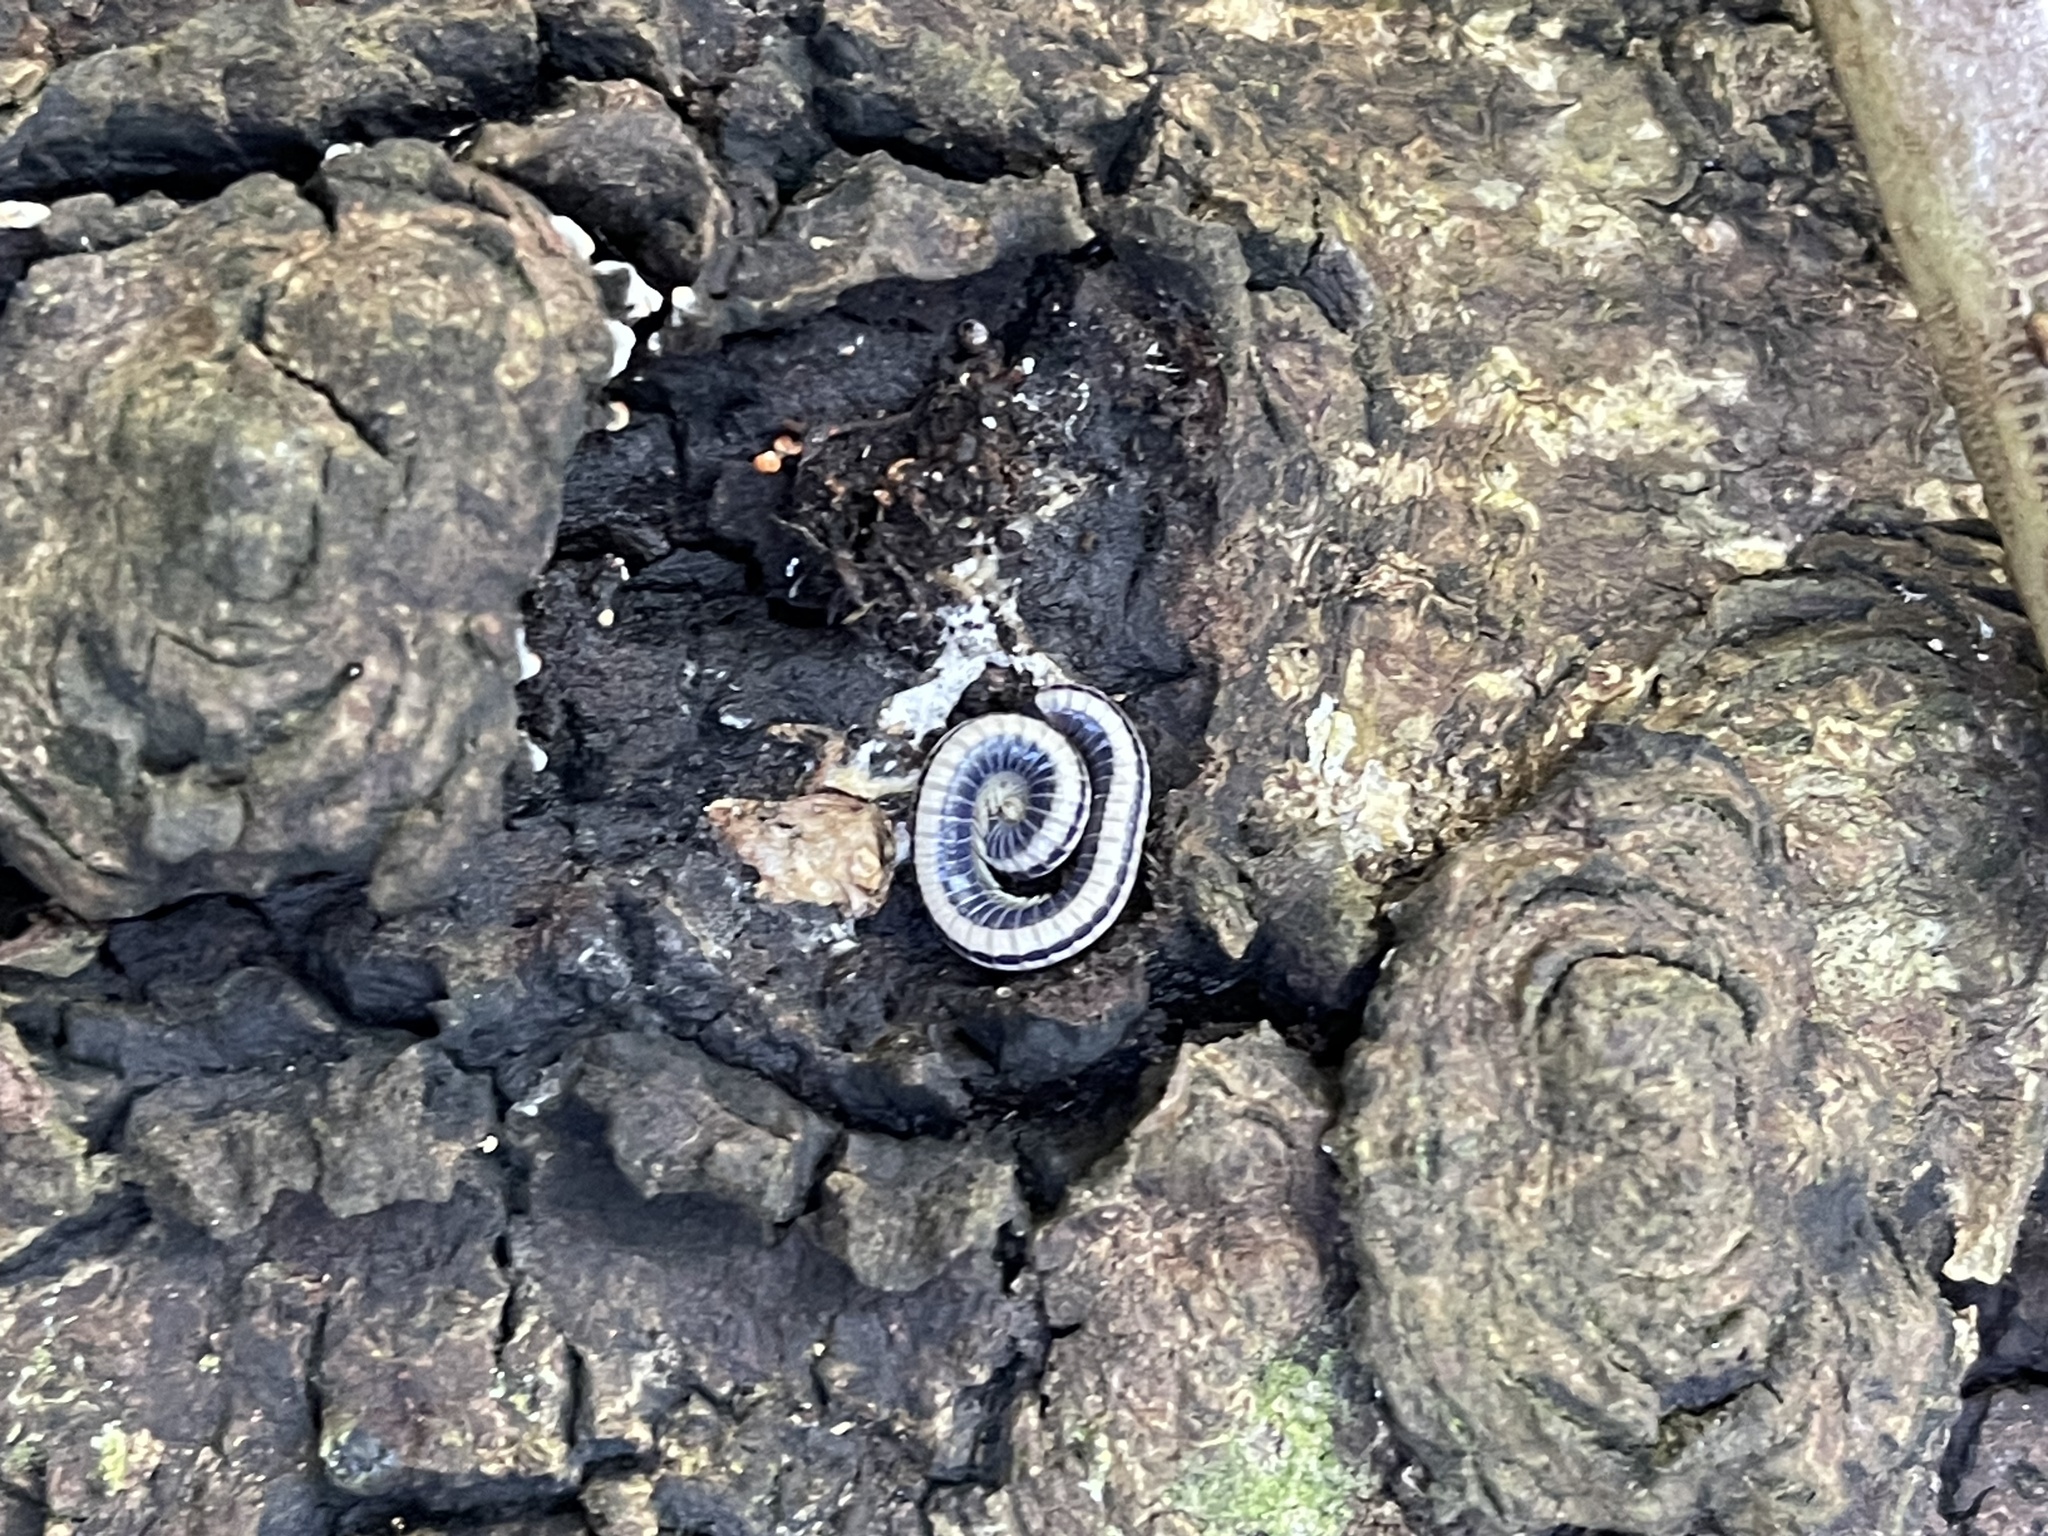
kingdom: Animalia
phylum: Arthropoda
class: Diplopoda
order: Spirobolida
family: Spirobolellidae
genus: Spirobolellus
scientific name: Spirobolellus immigrans
